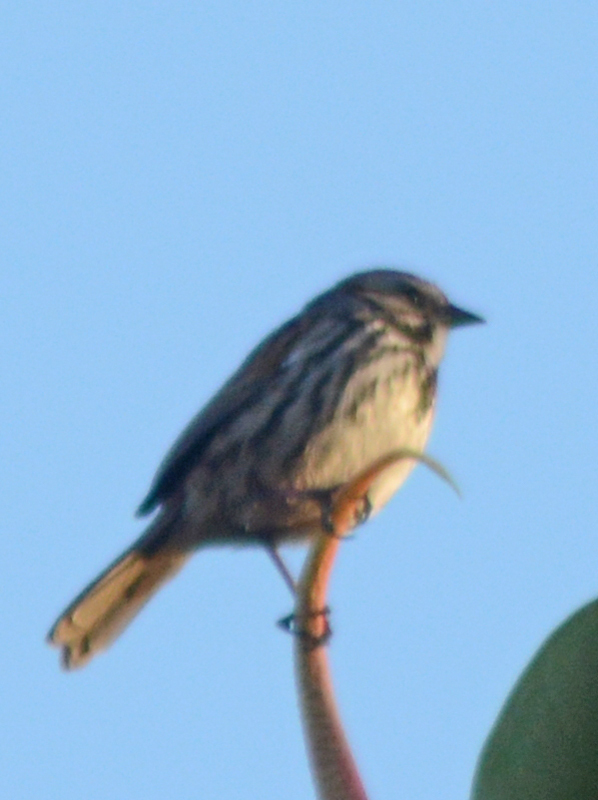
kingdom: Animalia
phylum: Chordata
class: Aves
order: Passeriformes
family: Passerellidae
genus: Melospiza
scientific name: Melospiza melodia
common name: Song sparrow
